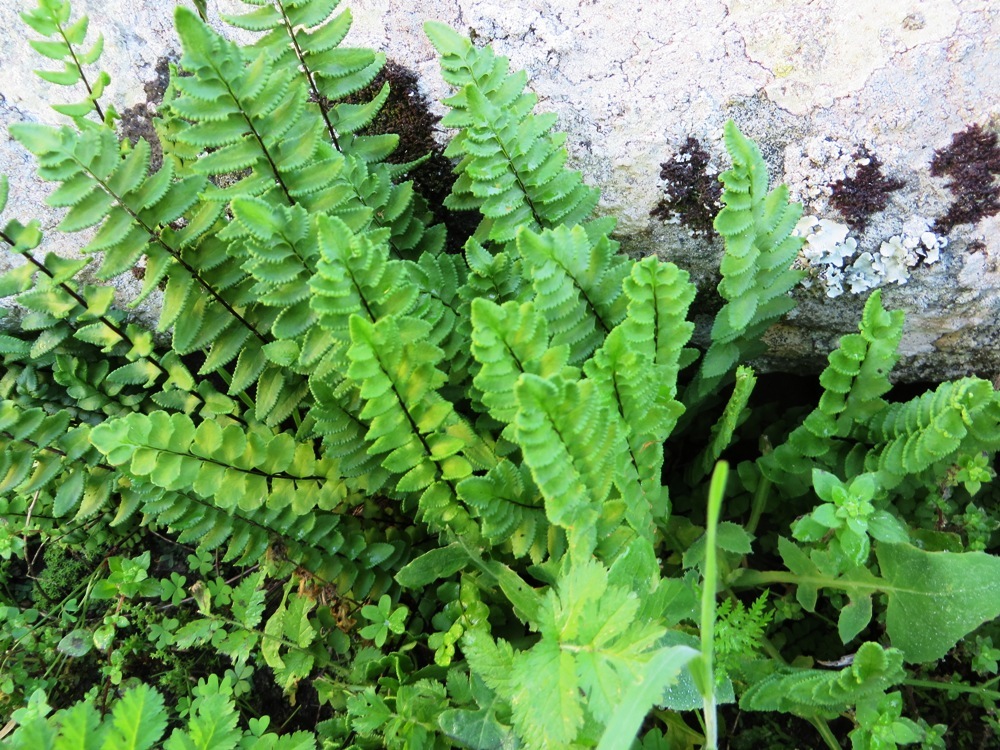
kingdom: Plantae
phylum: Tracheophyta
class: Polypodiopsida
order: Polypodiales
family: Pteridaceae
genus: Cheilanthes
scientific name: Cheilanthes hastata
